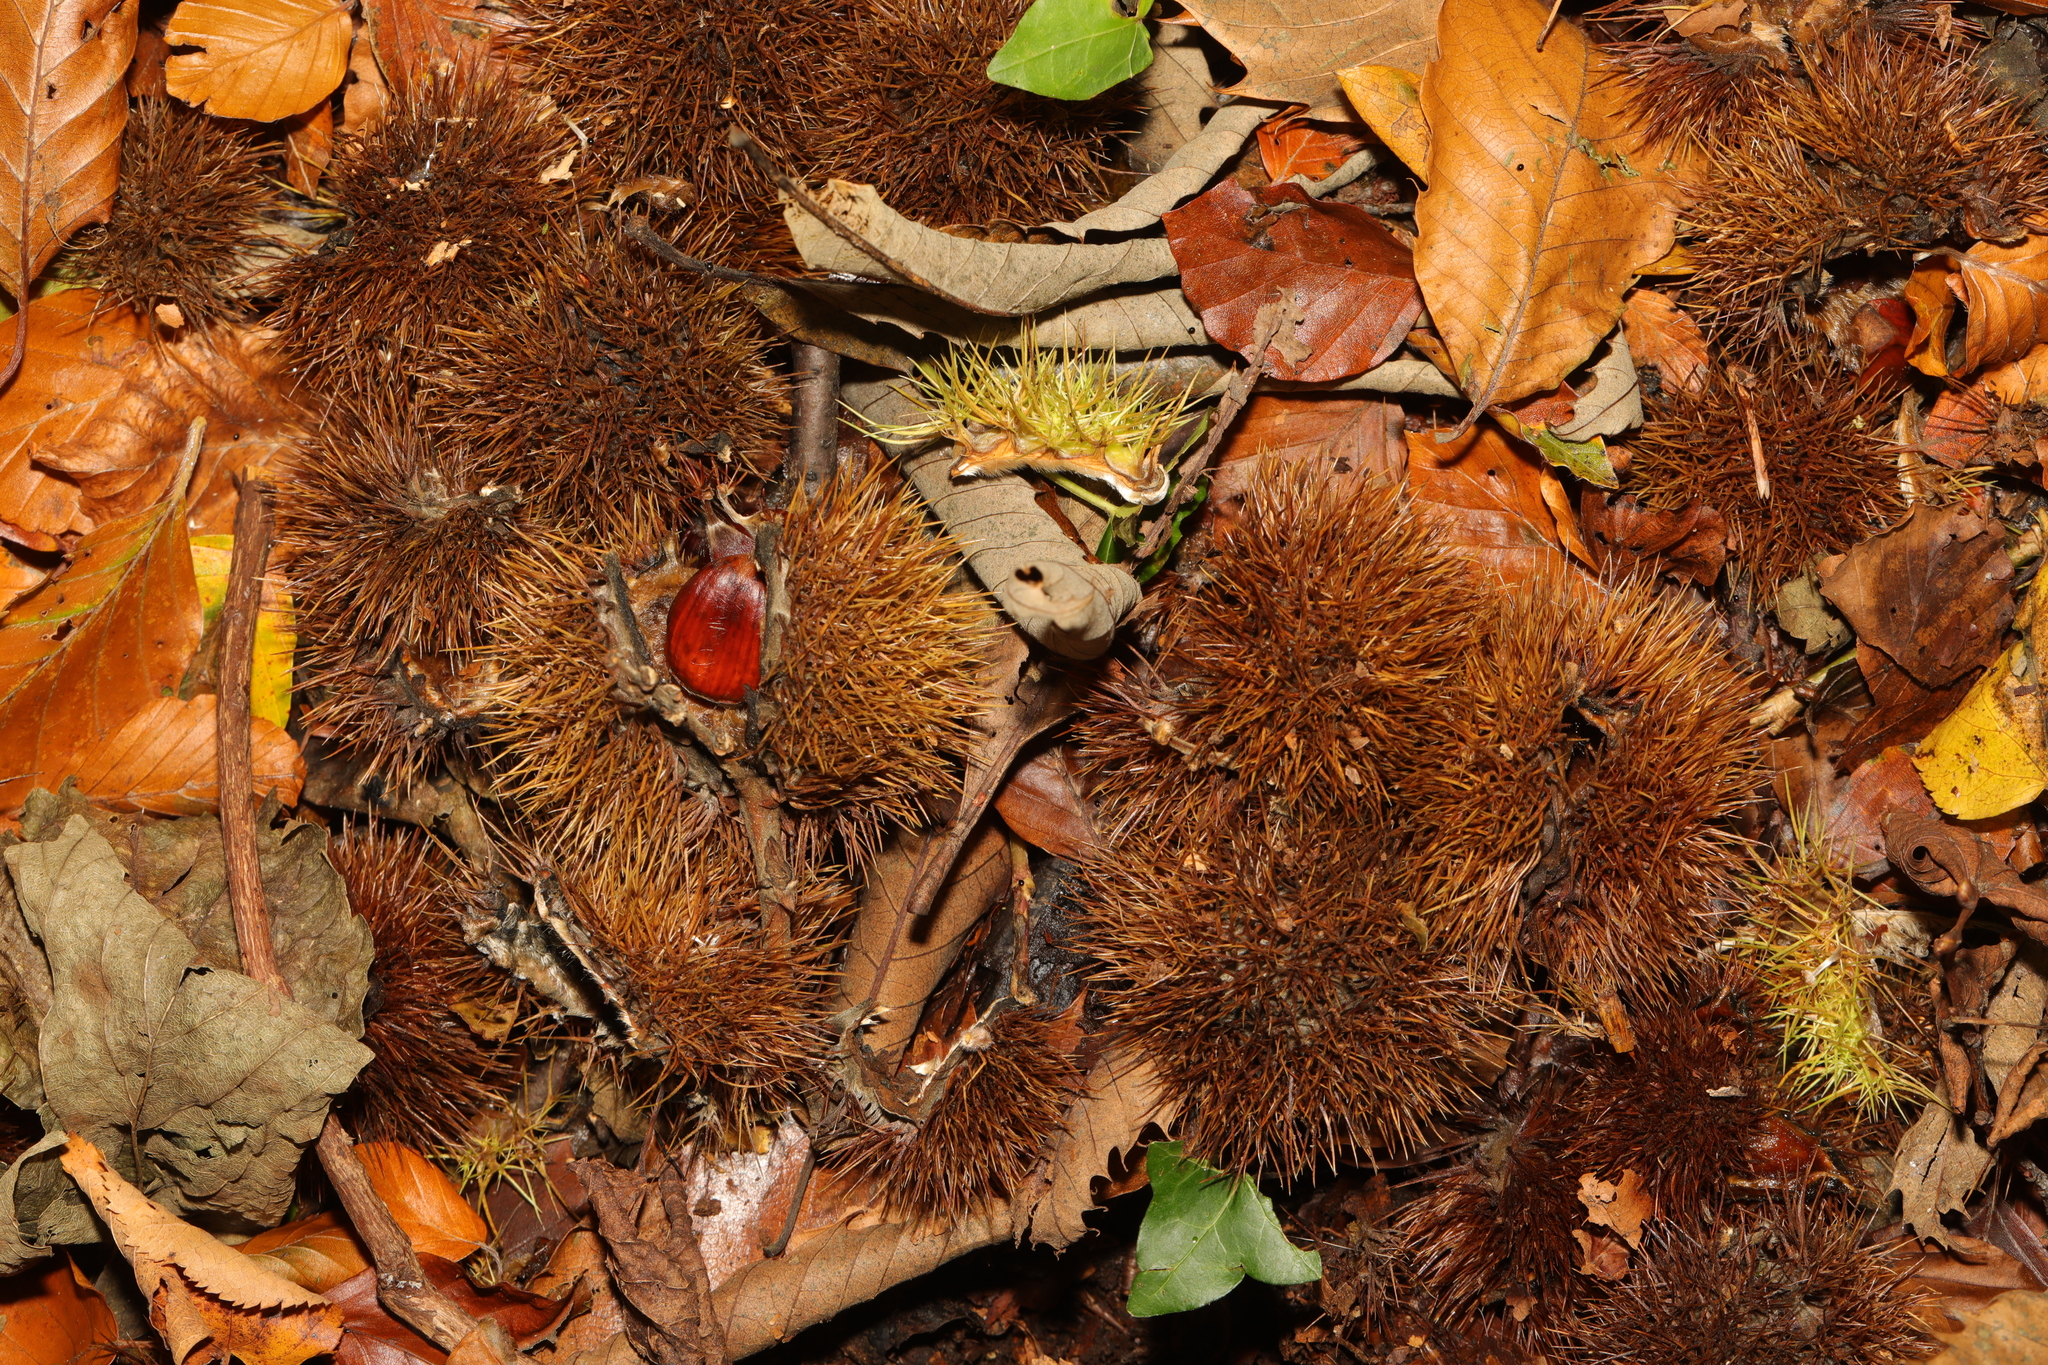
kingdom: Plantae
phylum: Tracheophyta
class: Magnoliopsida
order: Fagales
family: Fagaceae
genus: Castanea
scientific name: Castanea sativa
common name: Sweet chestnut
